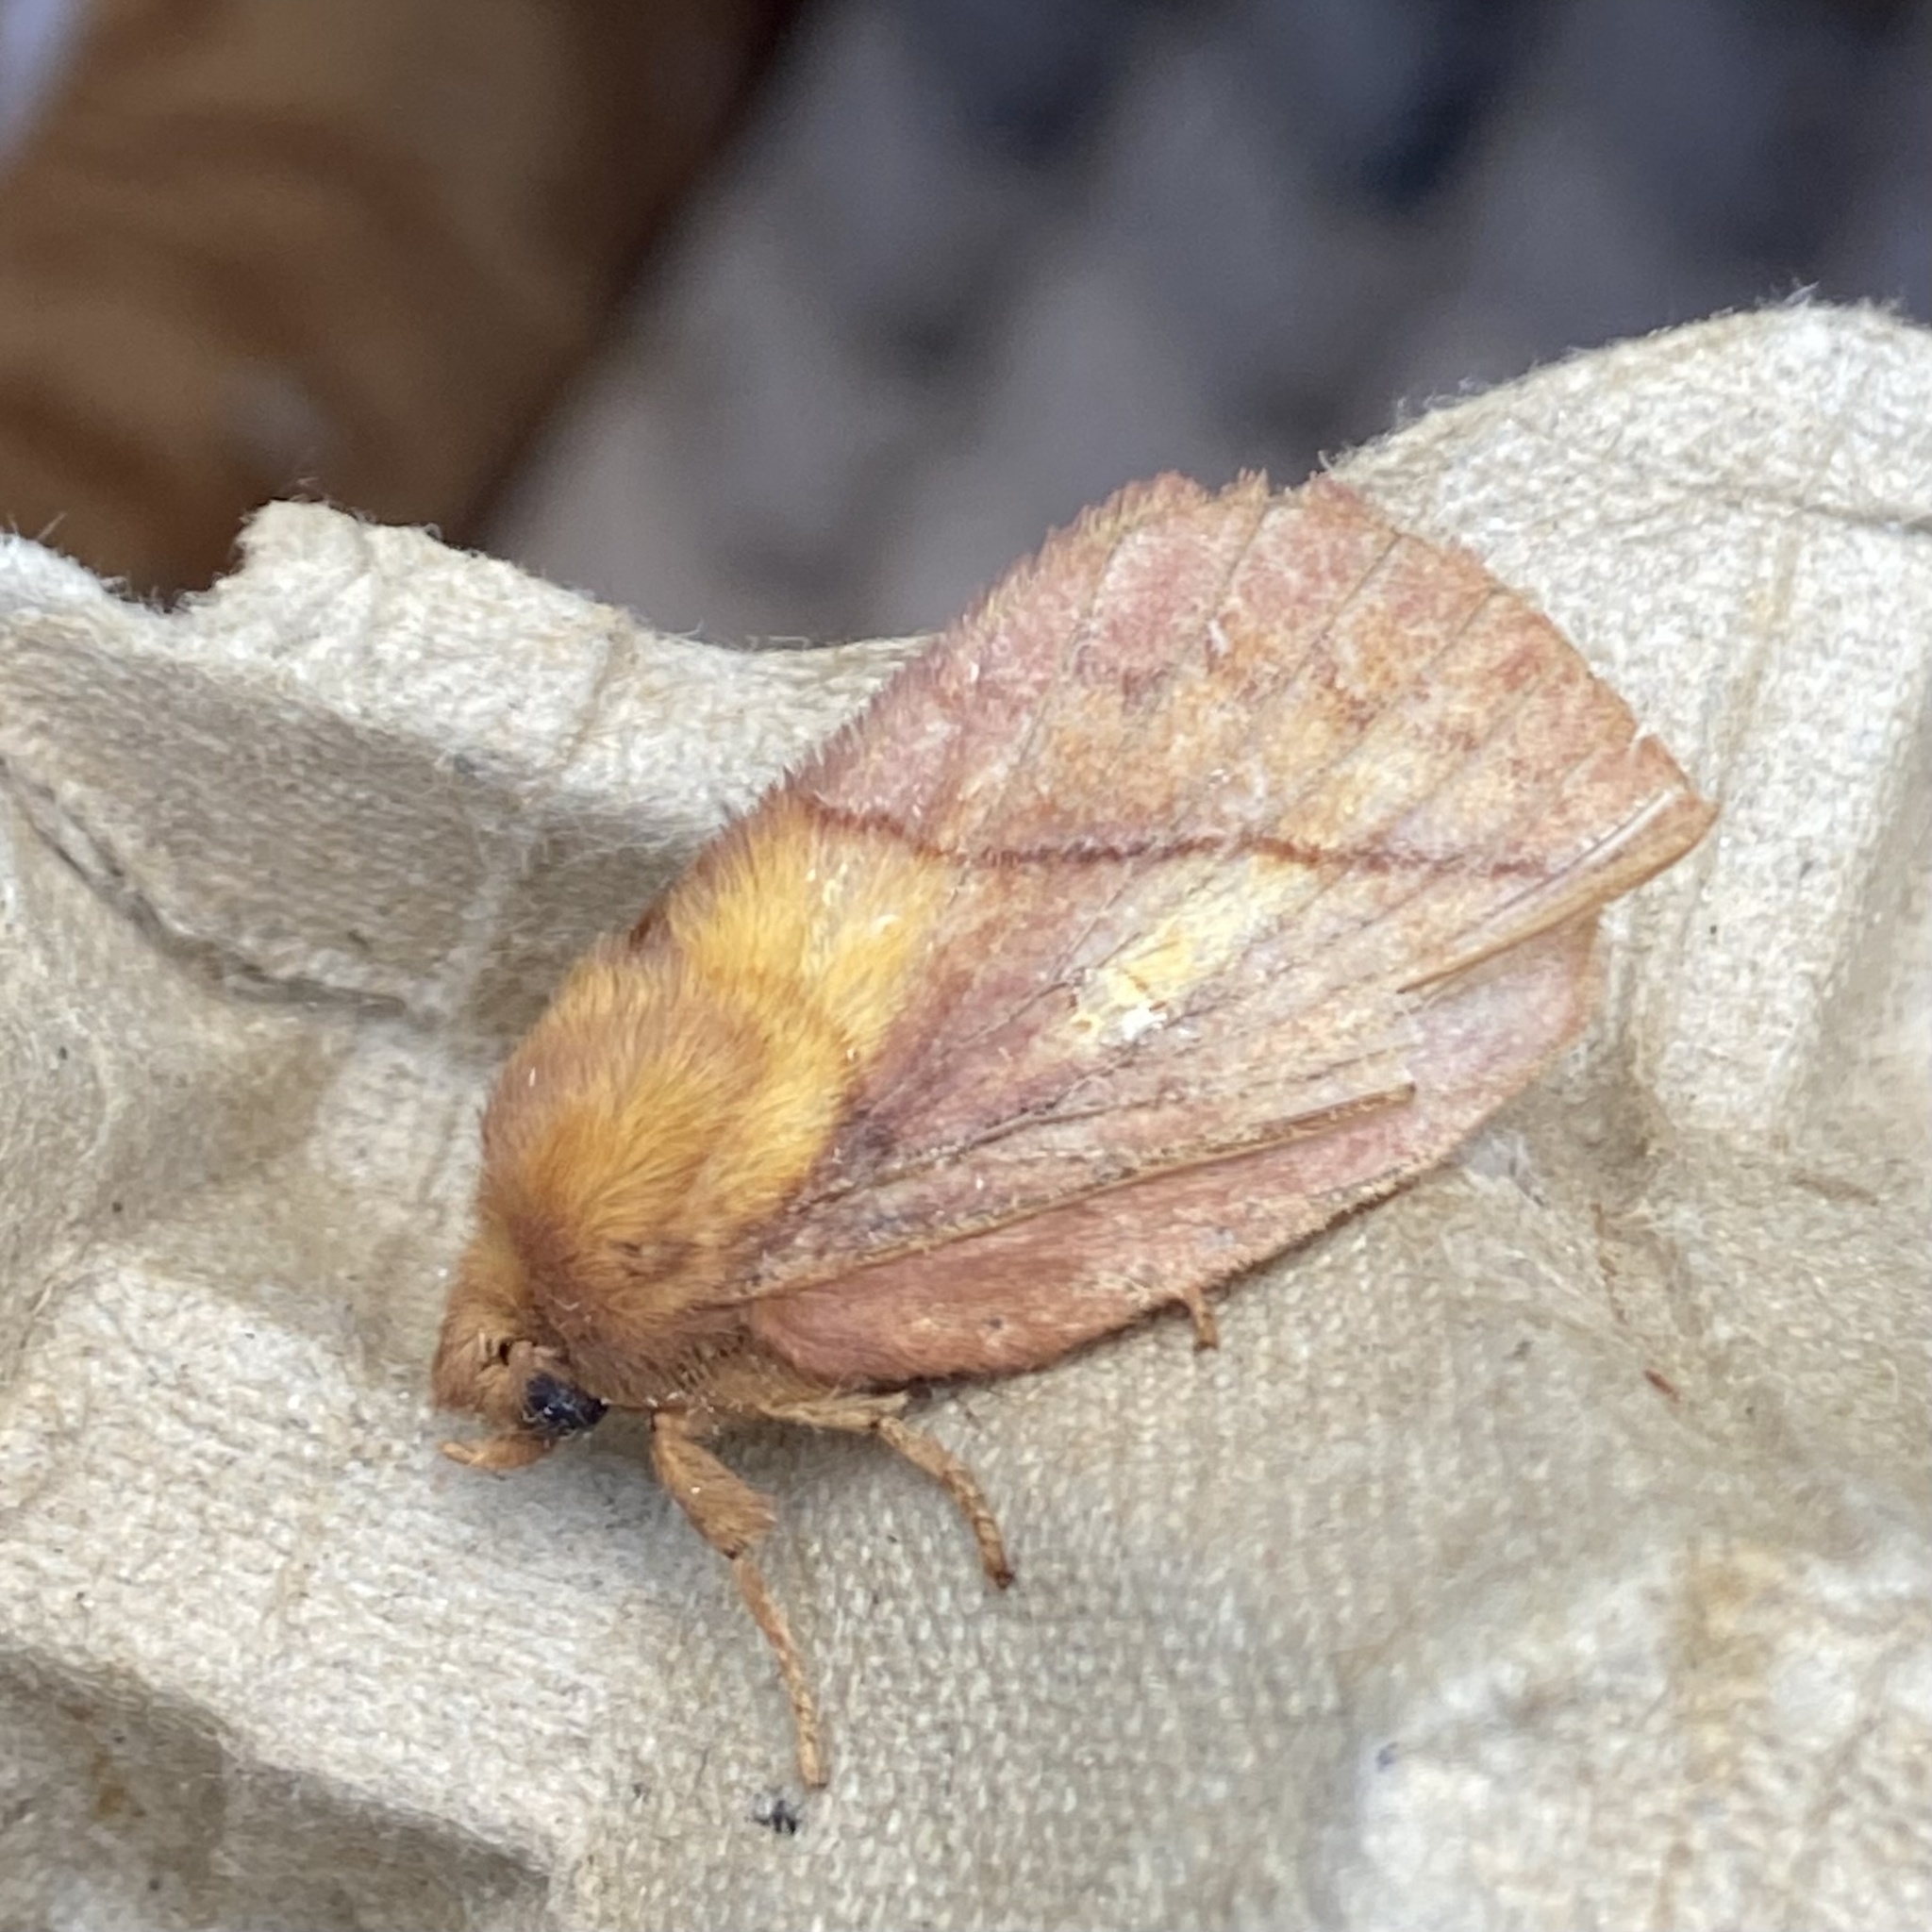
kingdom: Animalia
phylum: Arthropoda
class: Insecta
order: Lepidoptera
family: Lasiocampidae
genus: Euthrix
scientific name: Euthrix potatoria
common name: Drinker
